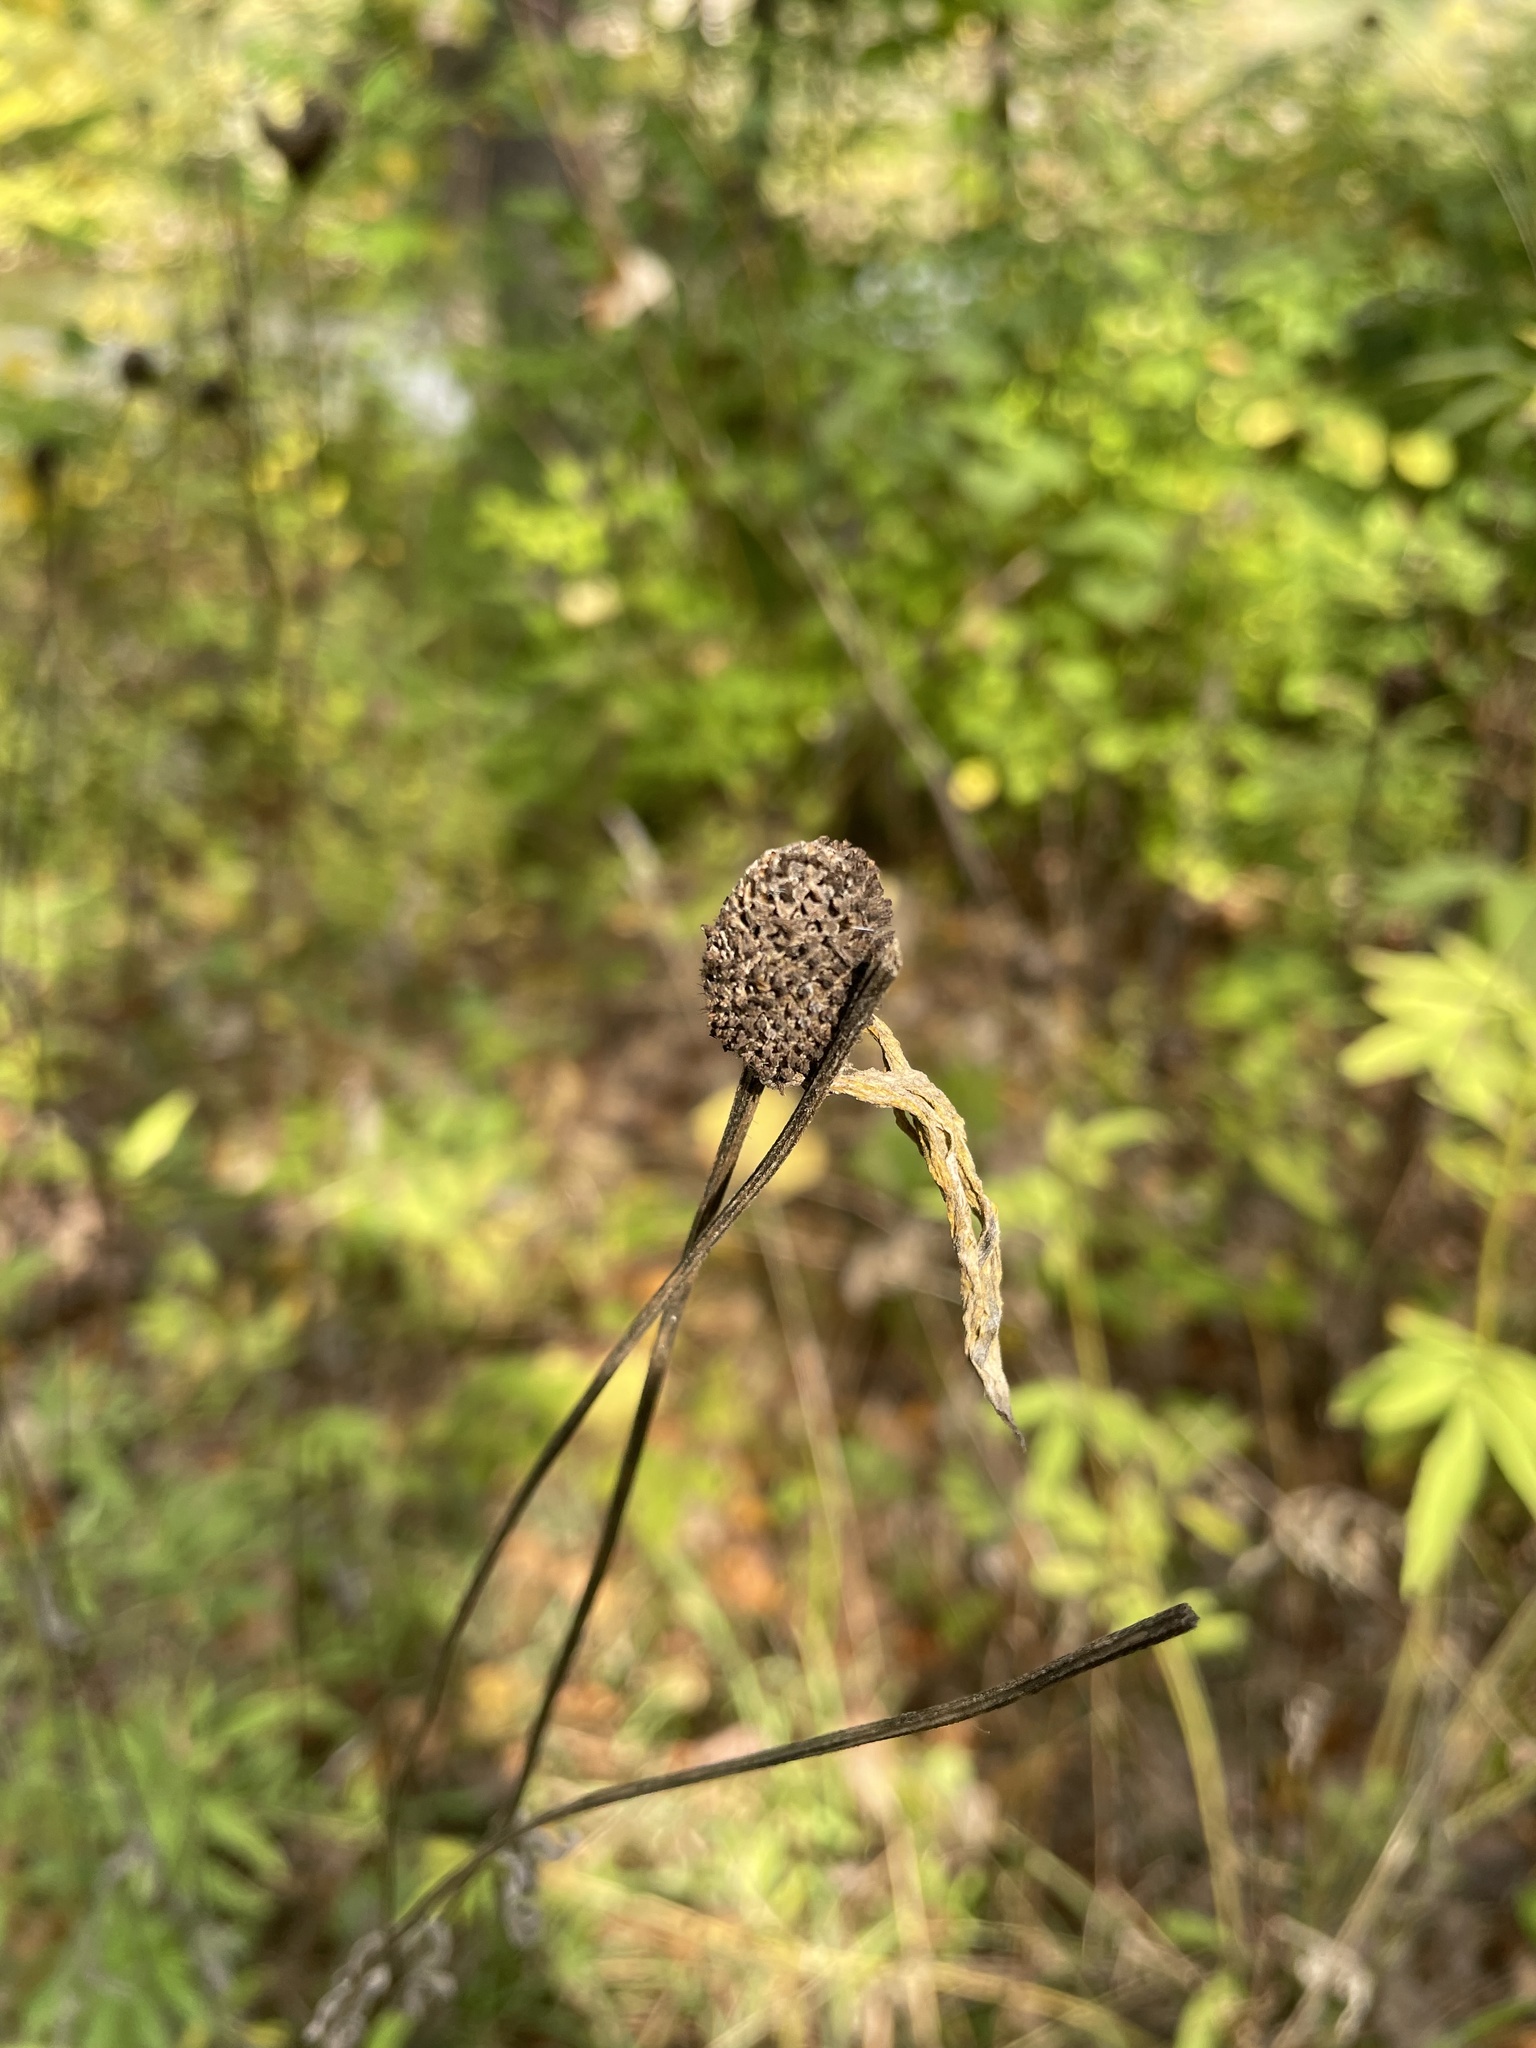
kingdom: Plantae
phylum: Tracheophyta
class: Magnoliopsida
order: Asterales
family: Asteraceae
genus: Ratibida
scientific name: Ratibida pinnata
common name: Drooping prairie-coneflower
